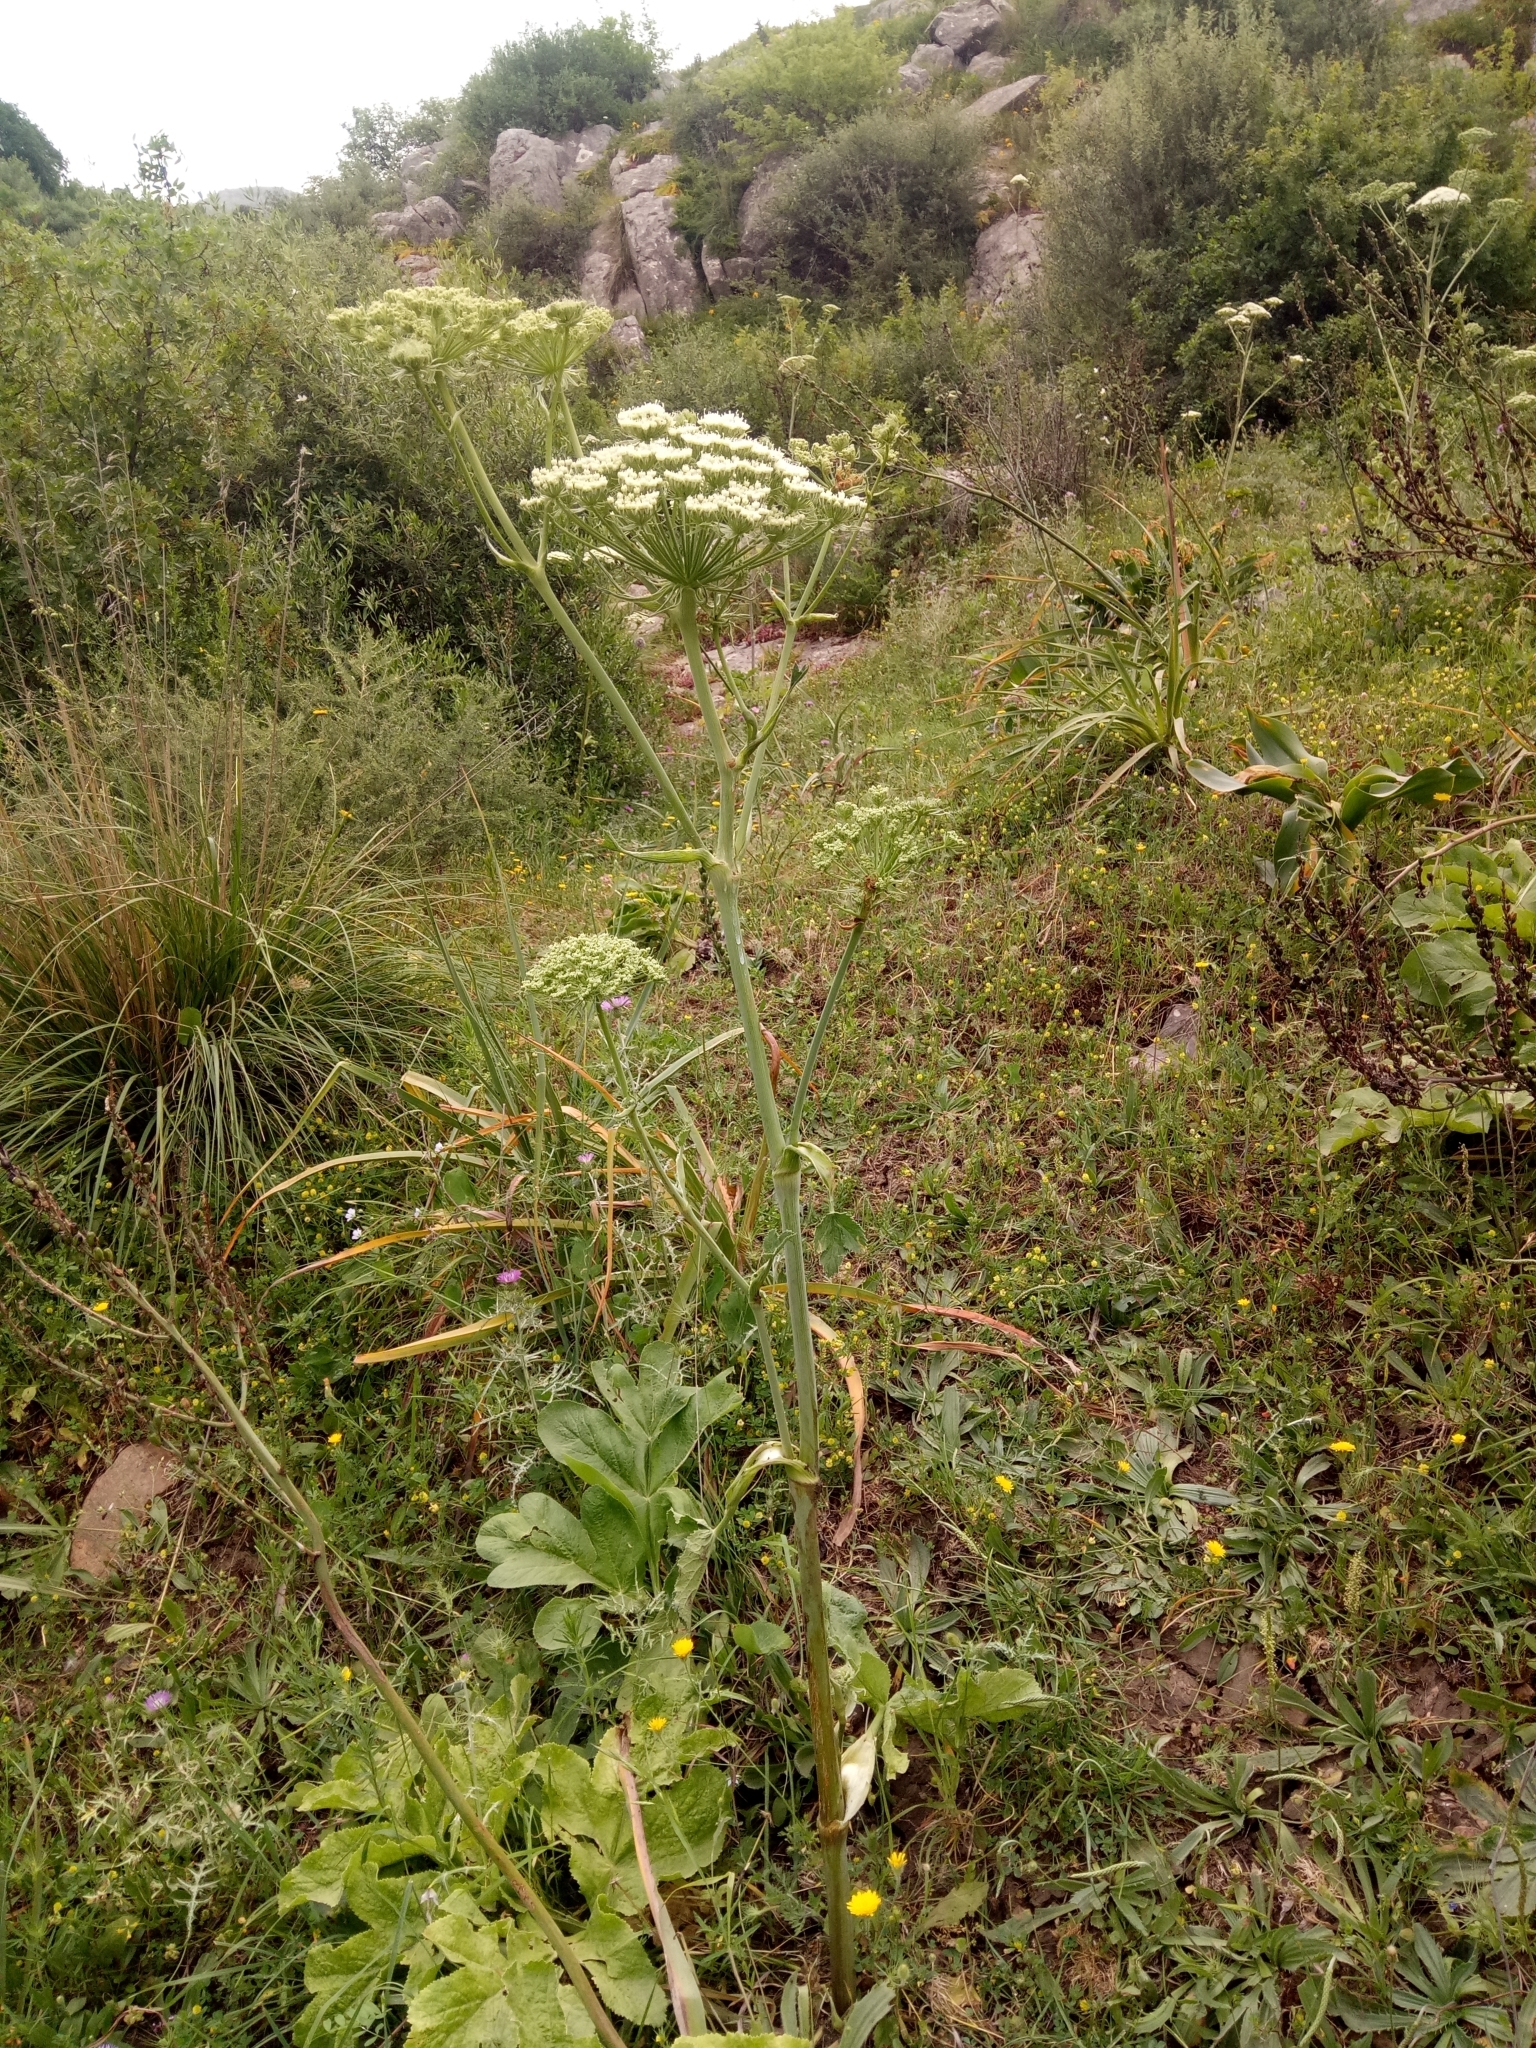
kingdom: Plantae
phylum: Tracheophyta
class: Magnoliopsida
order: Apiales
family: Apiaceae
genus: Magydaris
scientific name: Magydaris pastinacea
